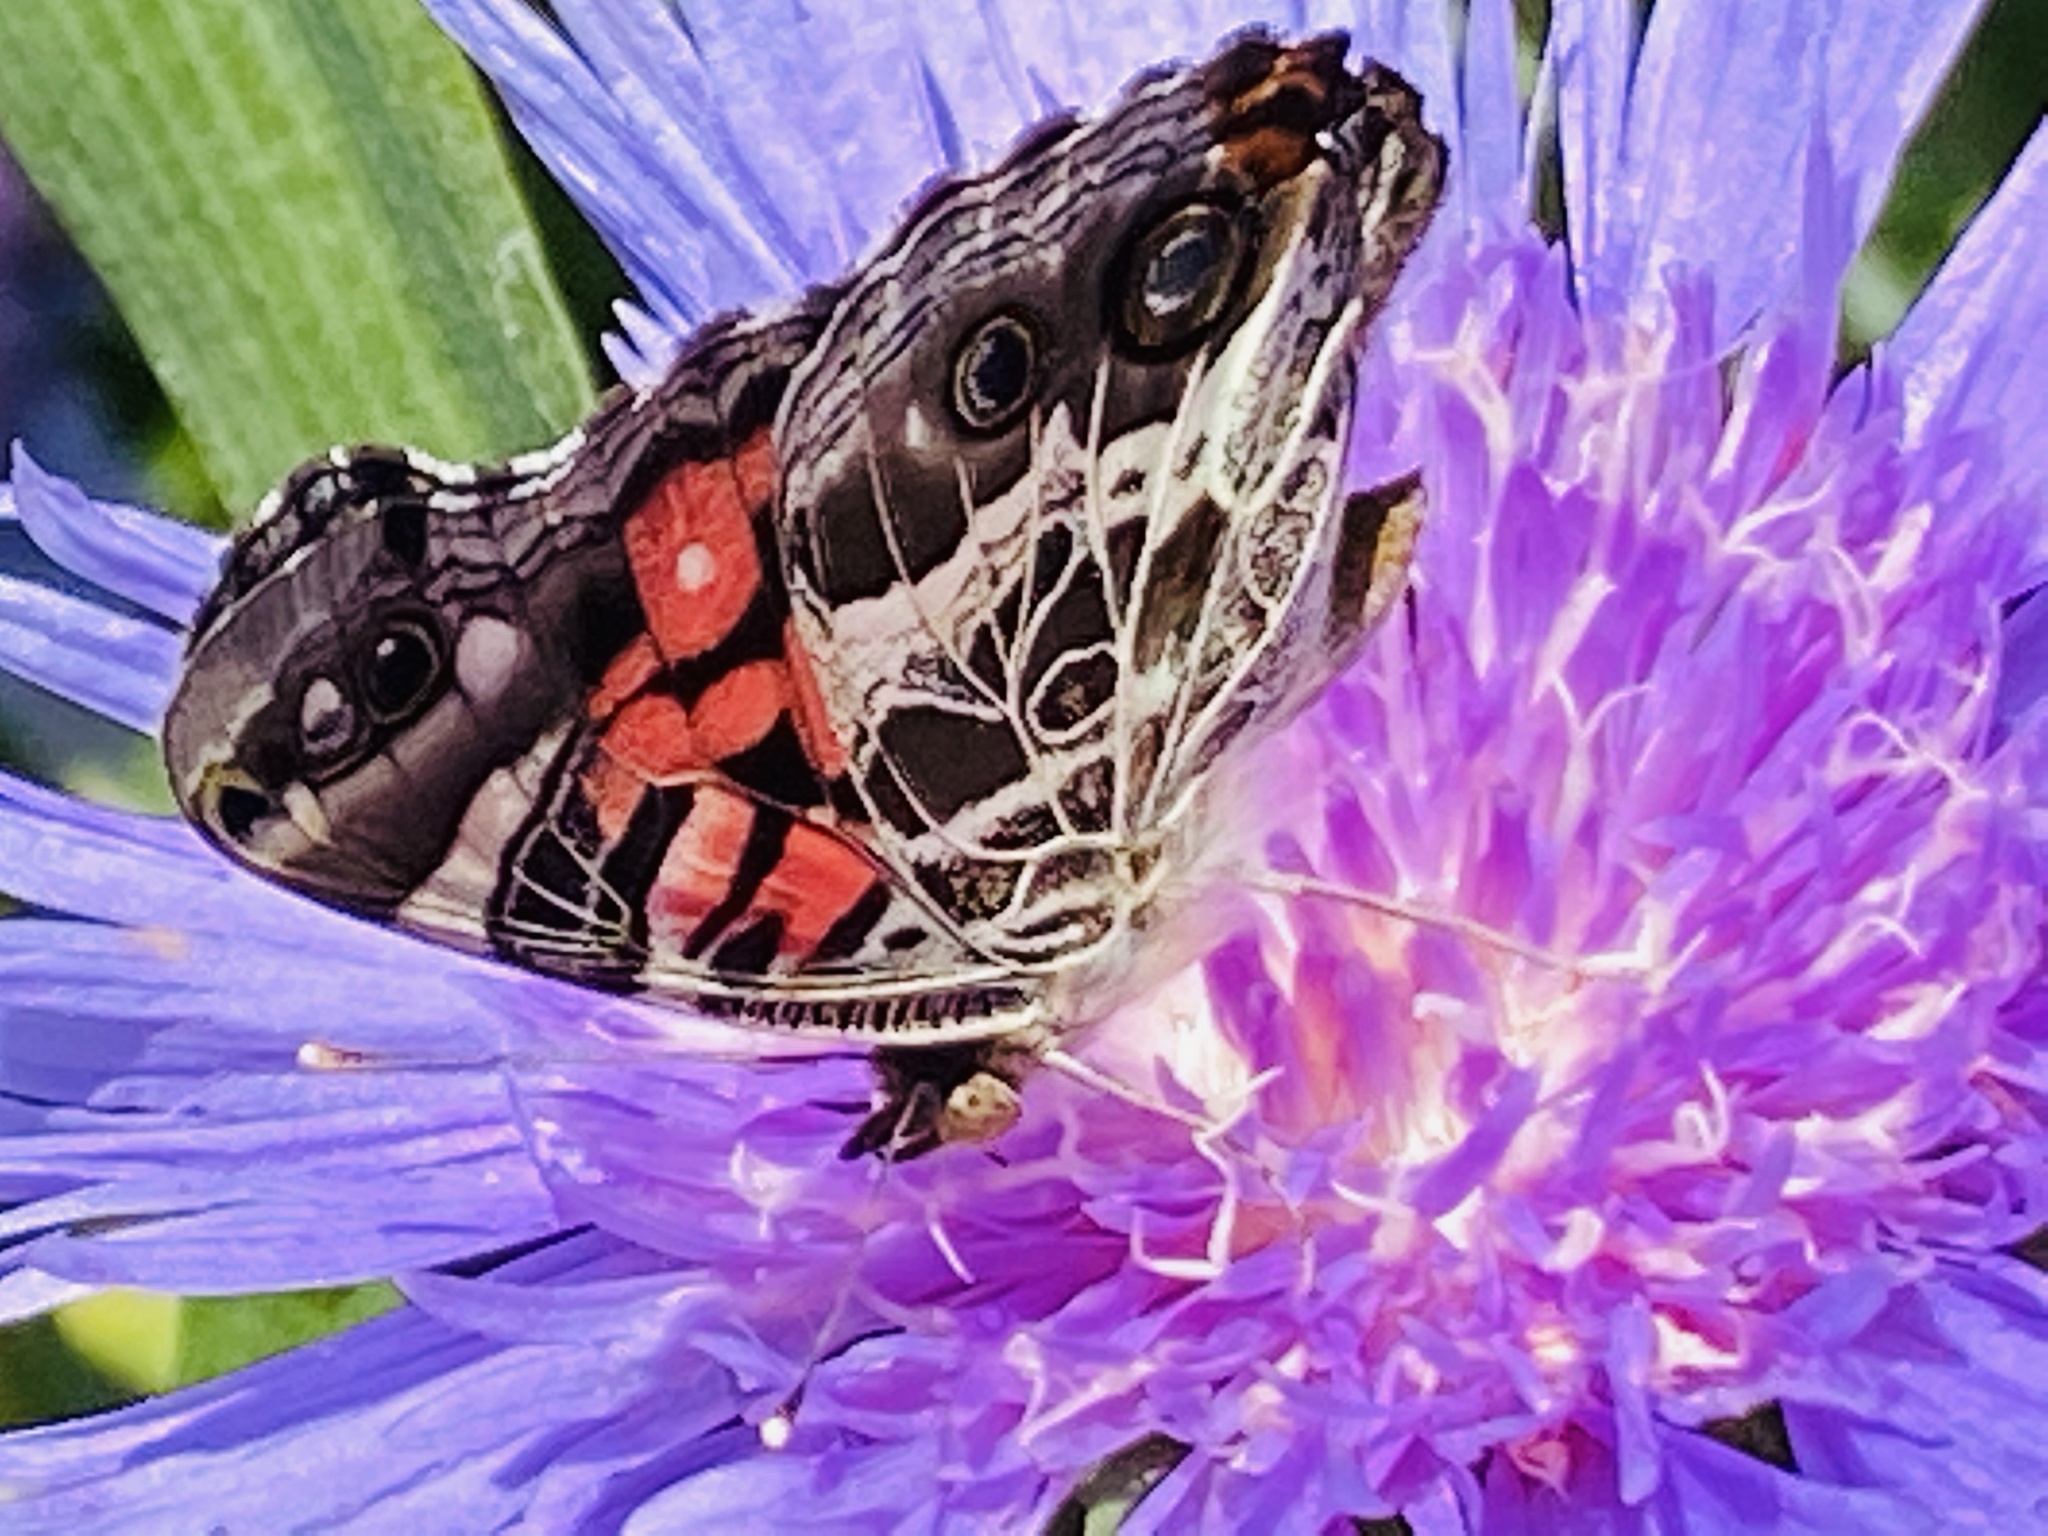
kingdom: Animalia
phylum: Arthropoda
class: Insecta
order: Lepidoptera
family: Nymphalidae
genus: Vanessa
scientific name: Vanessa virginiensis
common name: American lady
